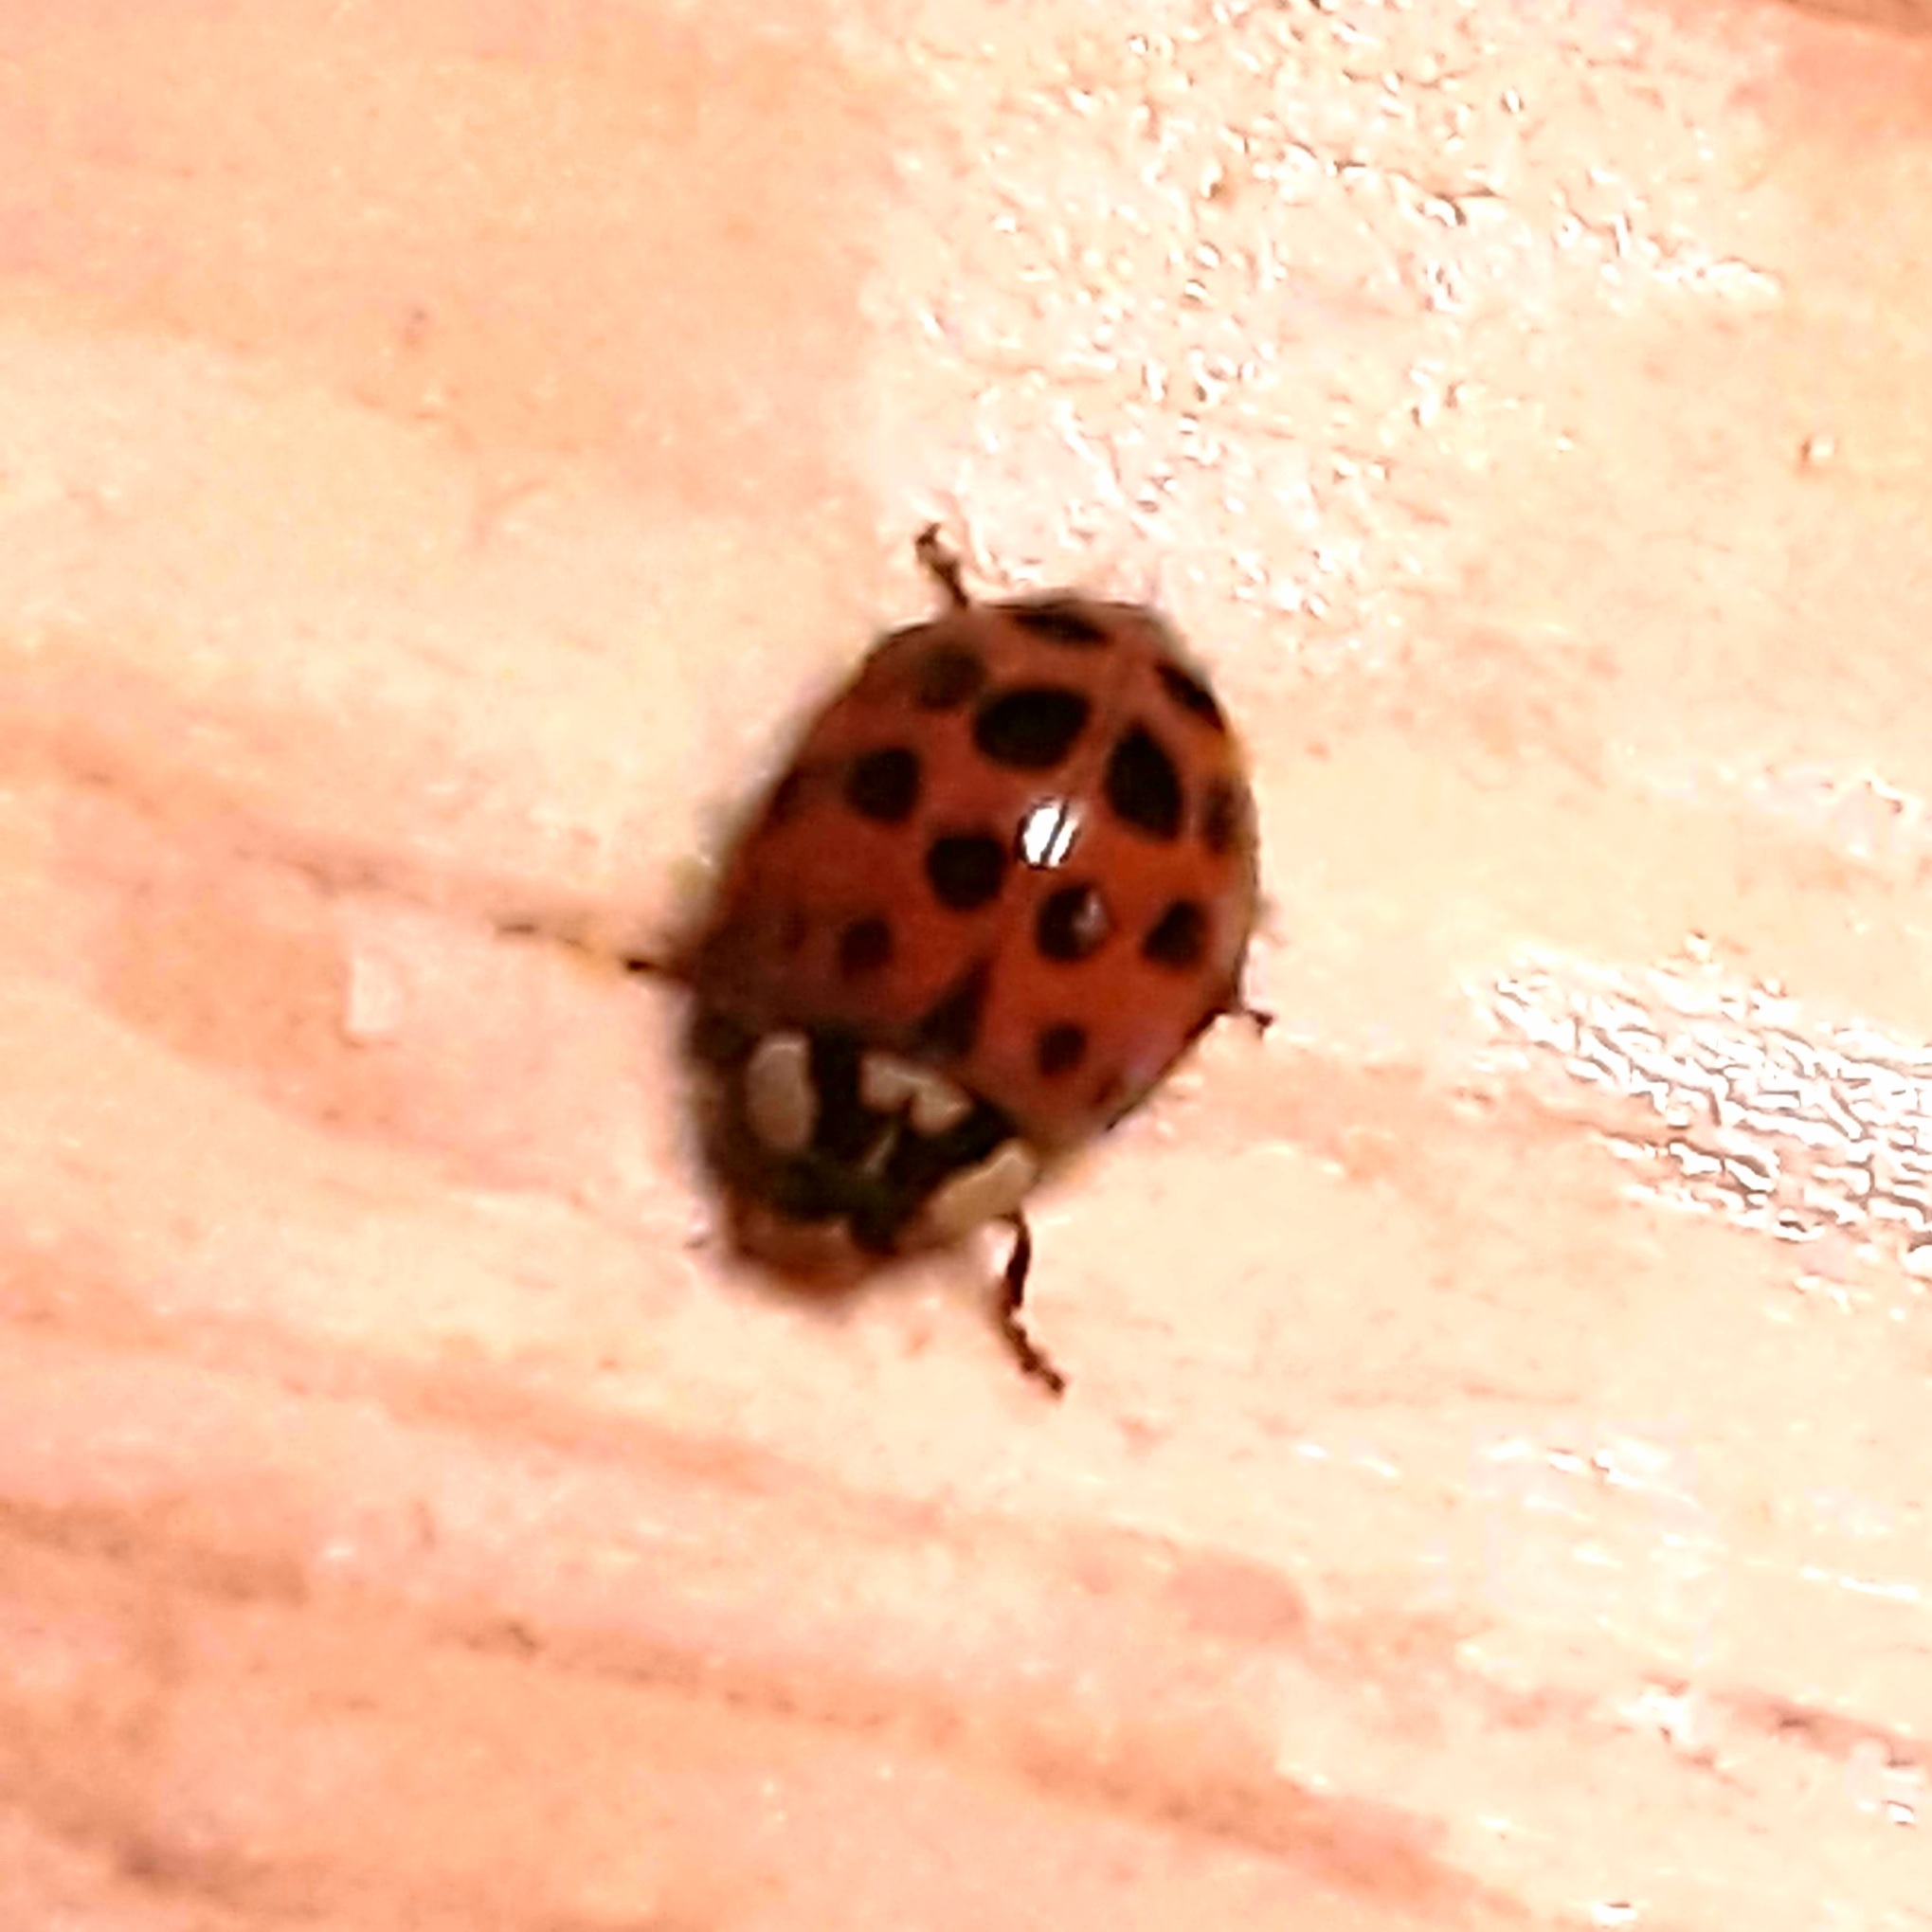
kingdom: Animalia
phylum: Arthropoda
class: Insecta
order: Coleoptera
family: Coccinellidae
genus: Harmonia
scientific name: Harmonia axyridis
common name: Harlequin ladybird
